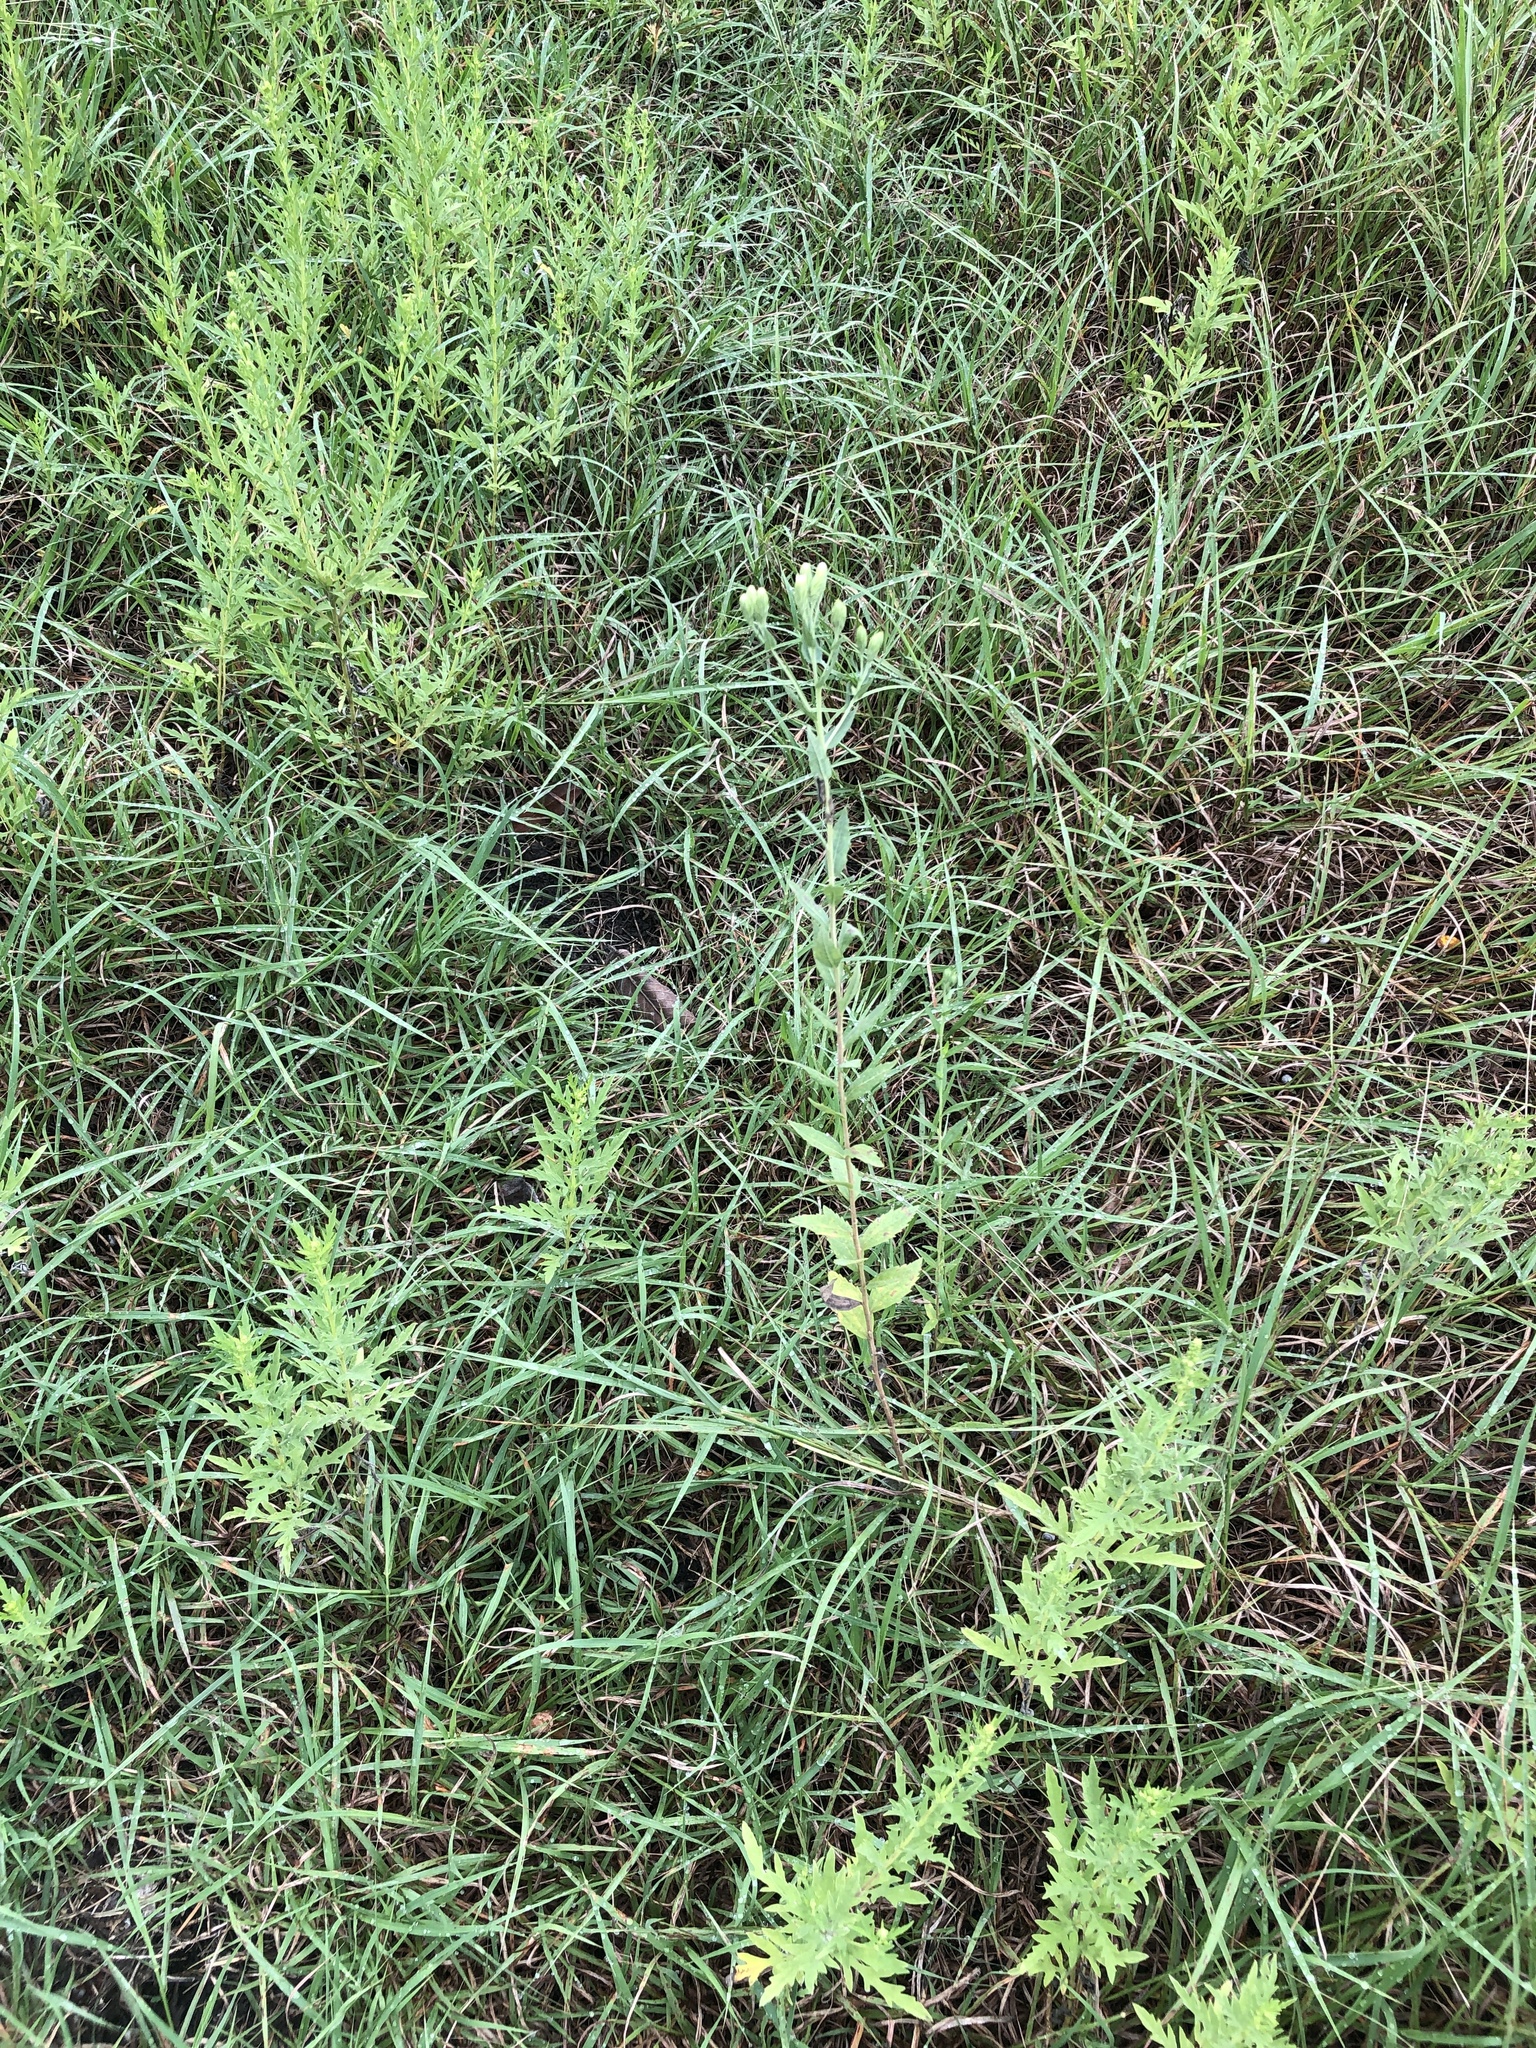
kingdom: Plantae
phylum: Tracheophyta
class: Magnoliopsida
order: Asterales
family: Asteraceae
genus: Brickellia
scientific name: Brickellia eupatorioides
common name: False boneset
